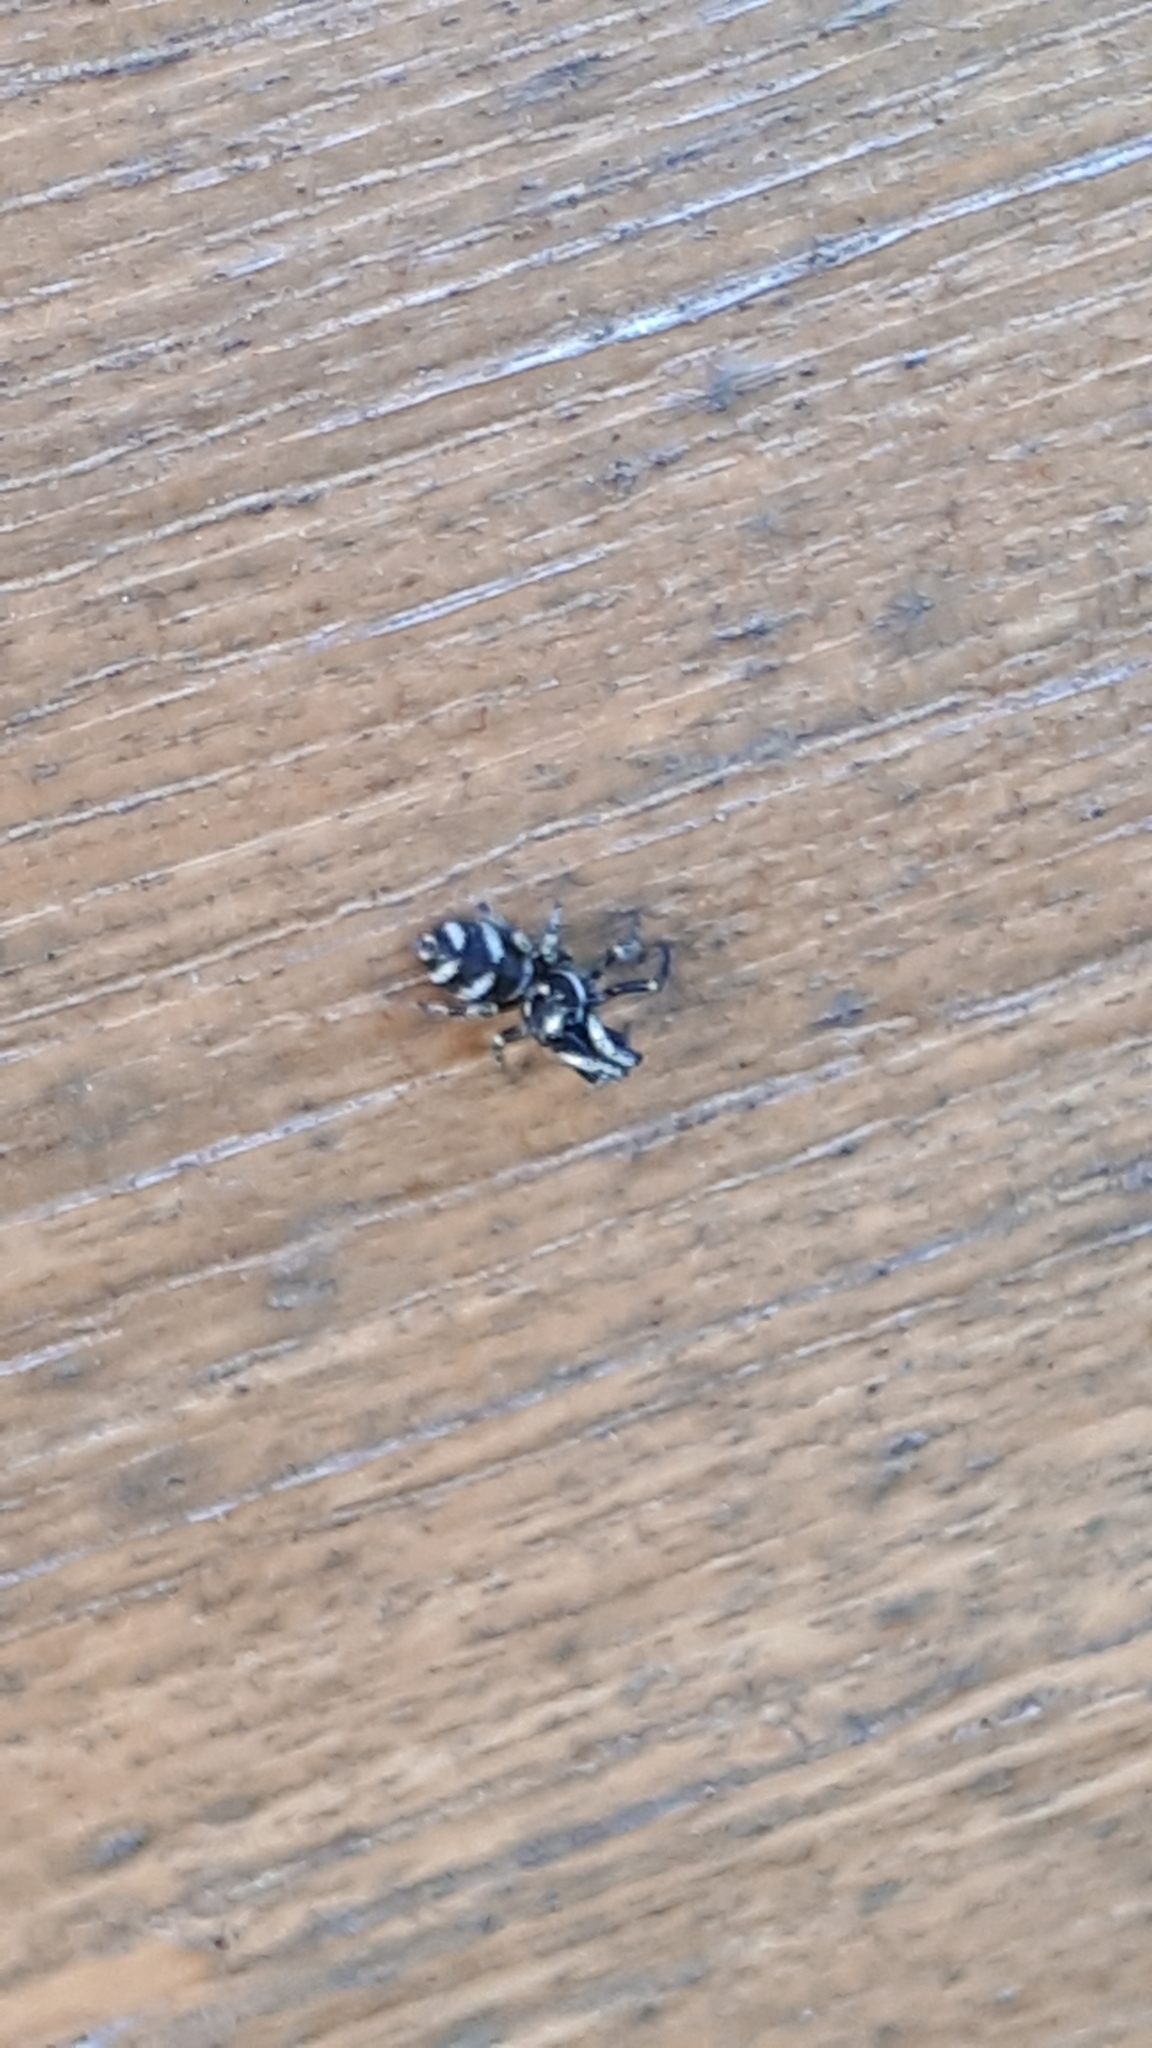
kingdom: Animalia
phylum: Arthropoda
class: Arachnida
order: Araneae
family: Salticidae
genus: Salticus
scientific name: Salticus scenicus
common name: Zebra jumper
